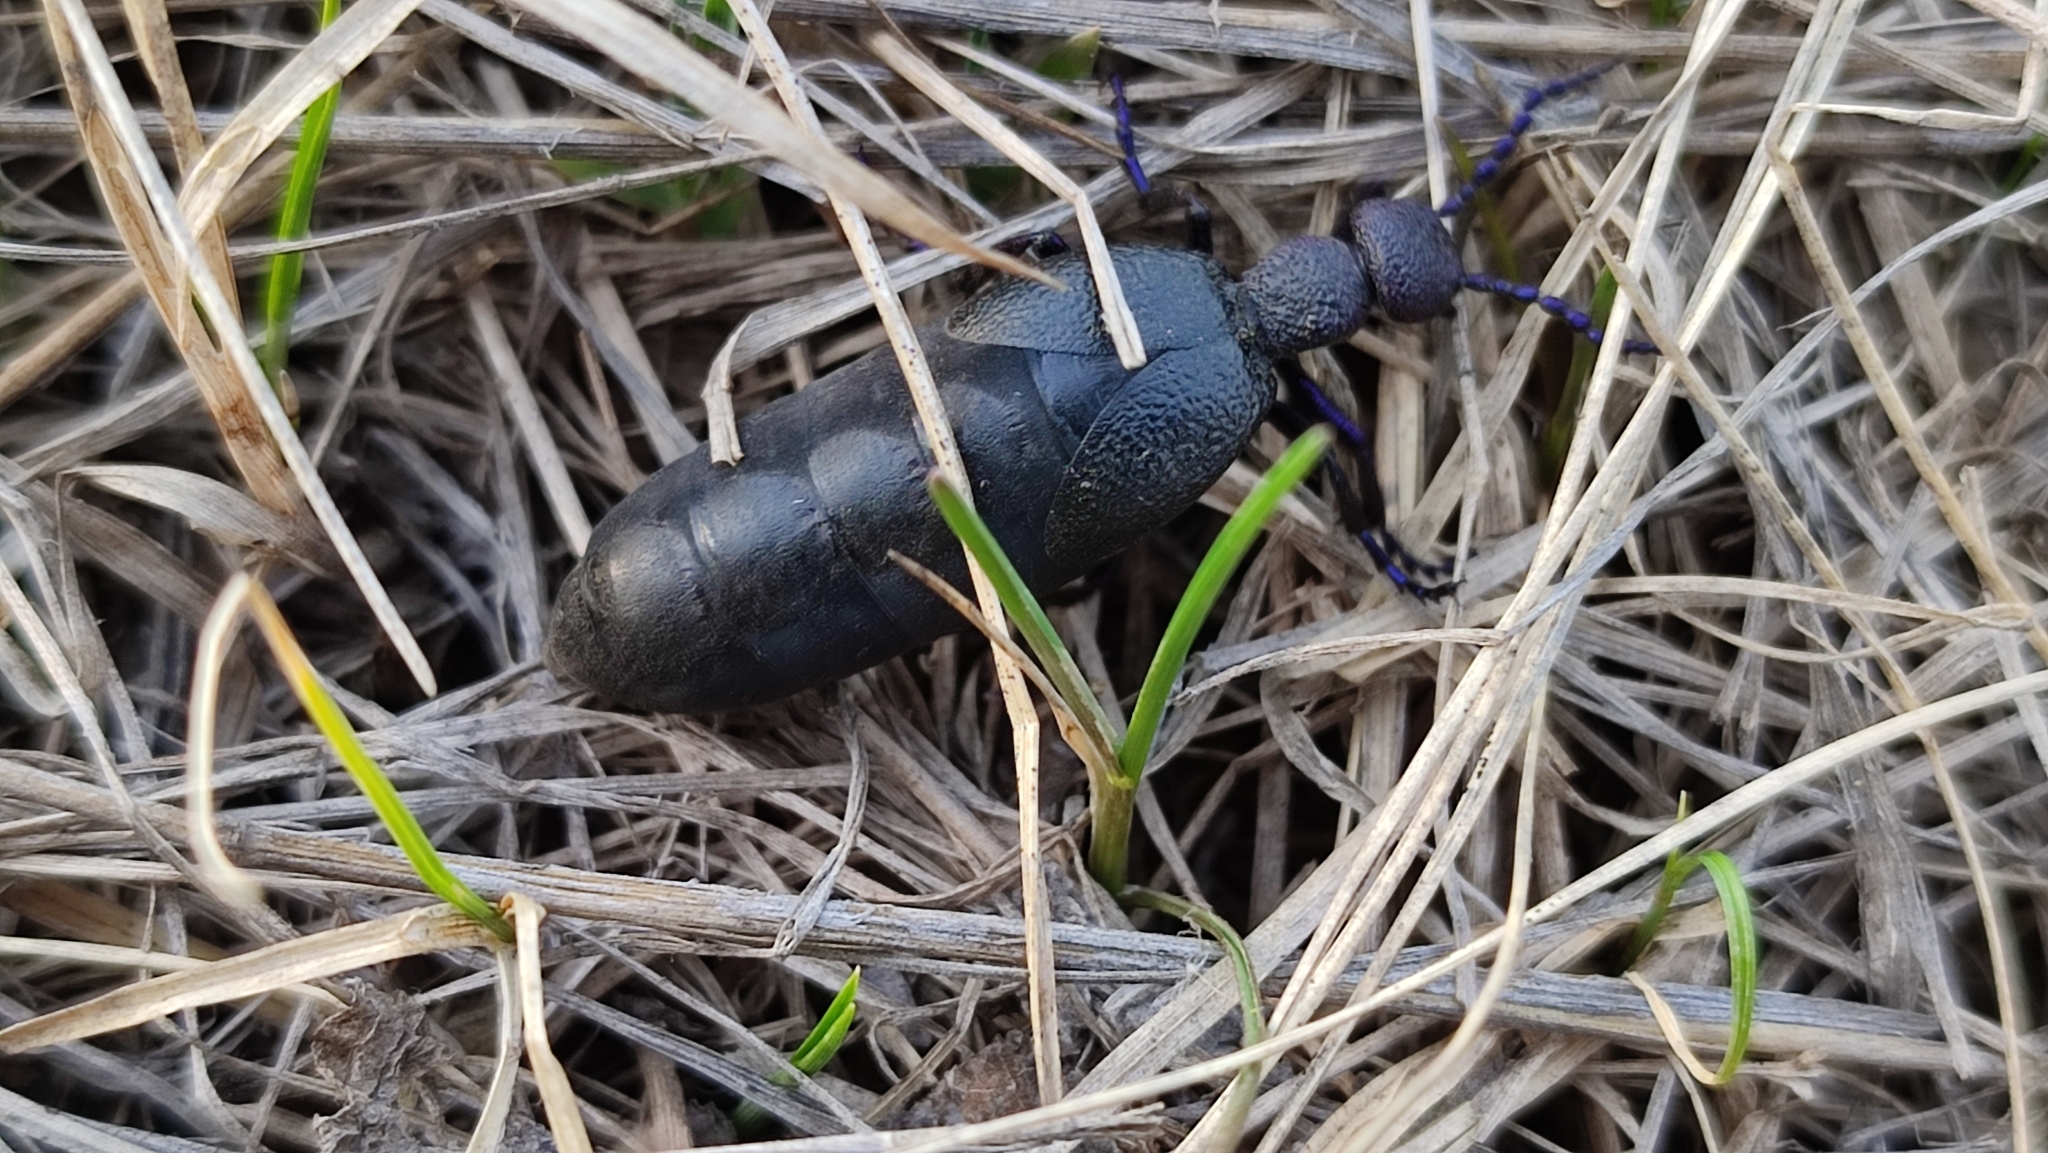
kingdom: Animalia
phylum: Arthropoda
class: Insecta
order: Coleoptera
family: Meloidae
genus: Meloe
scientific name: Meloe proscarabaeus
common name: Black oil-beetle
